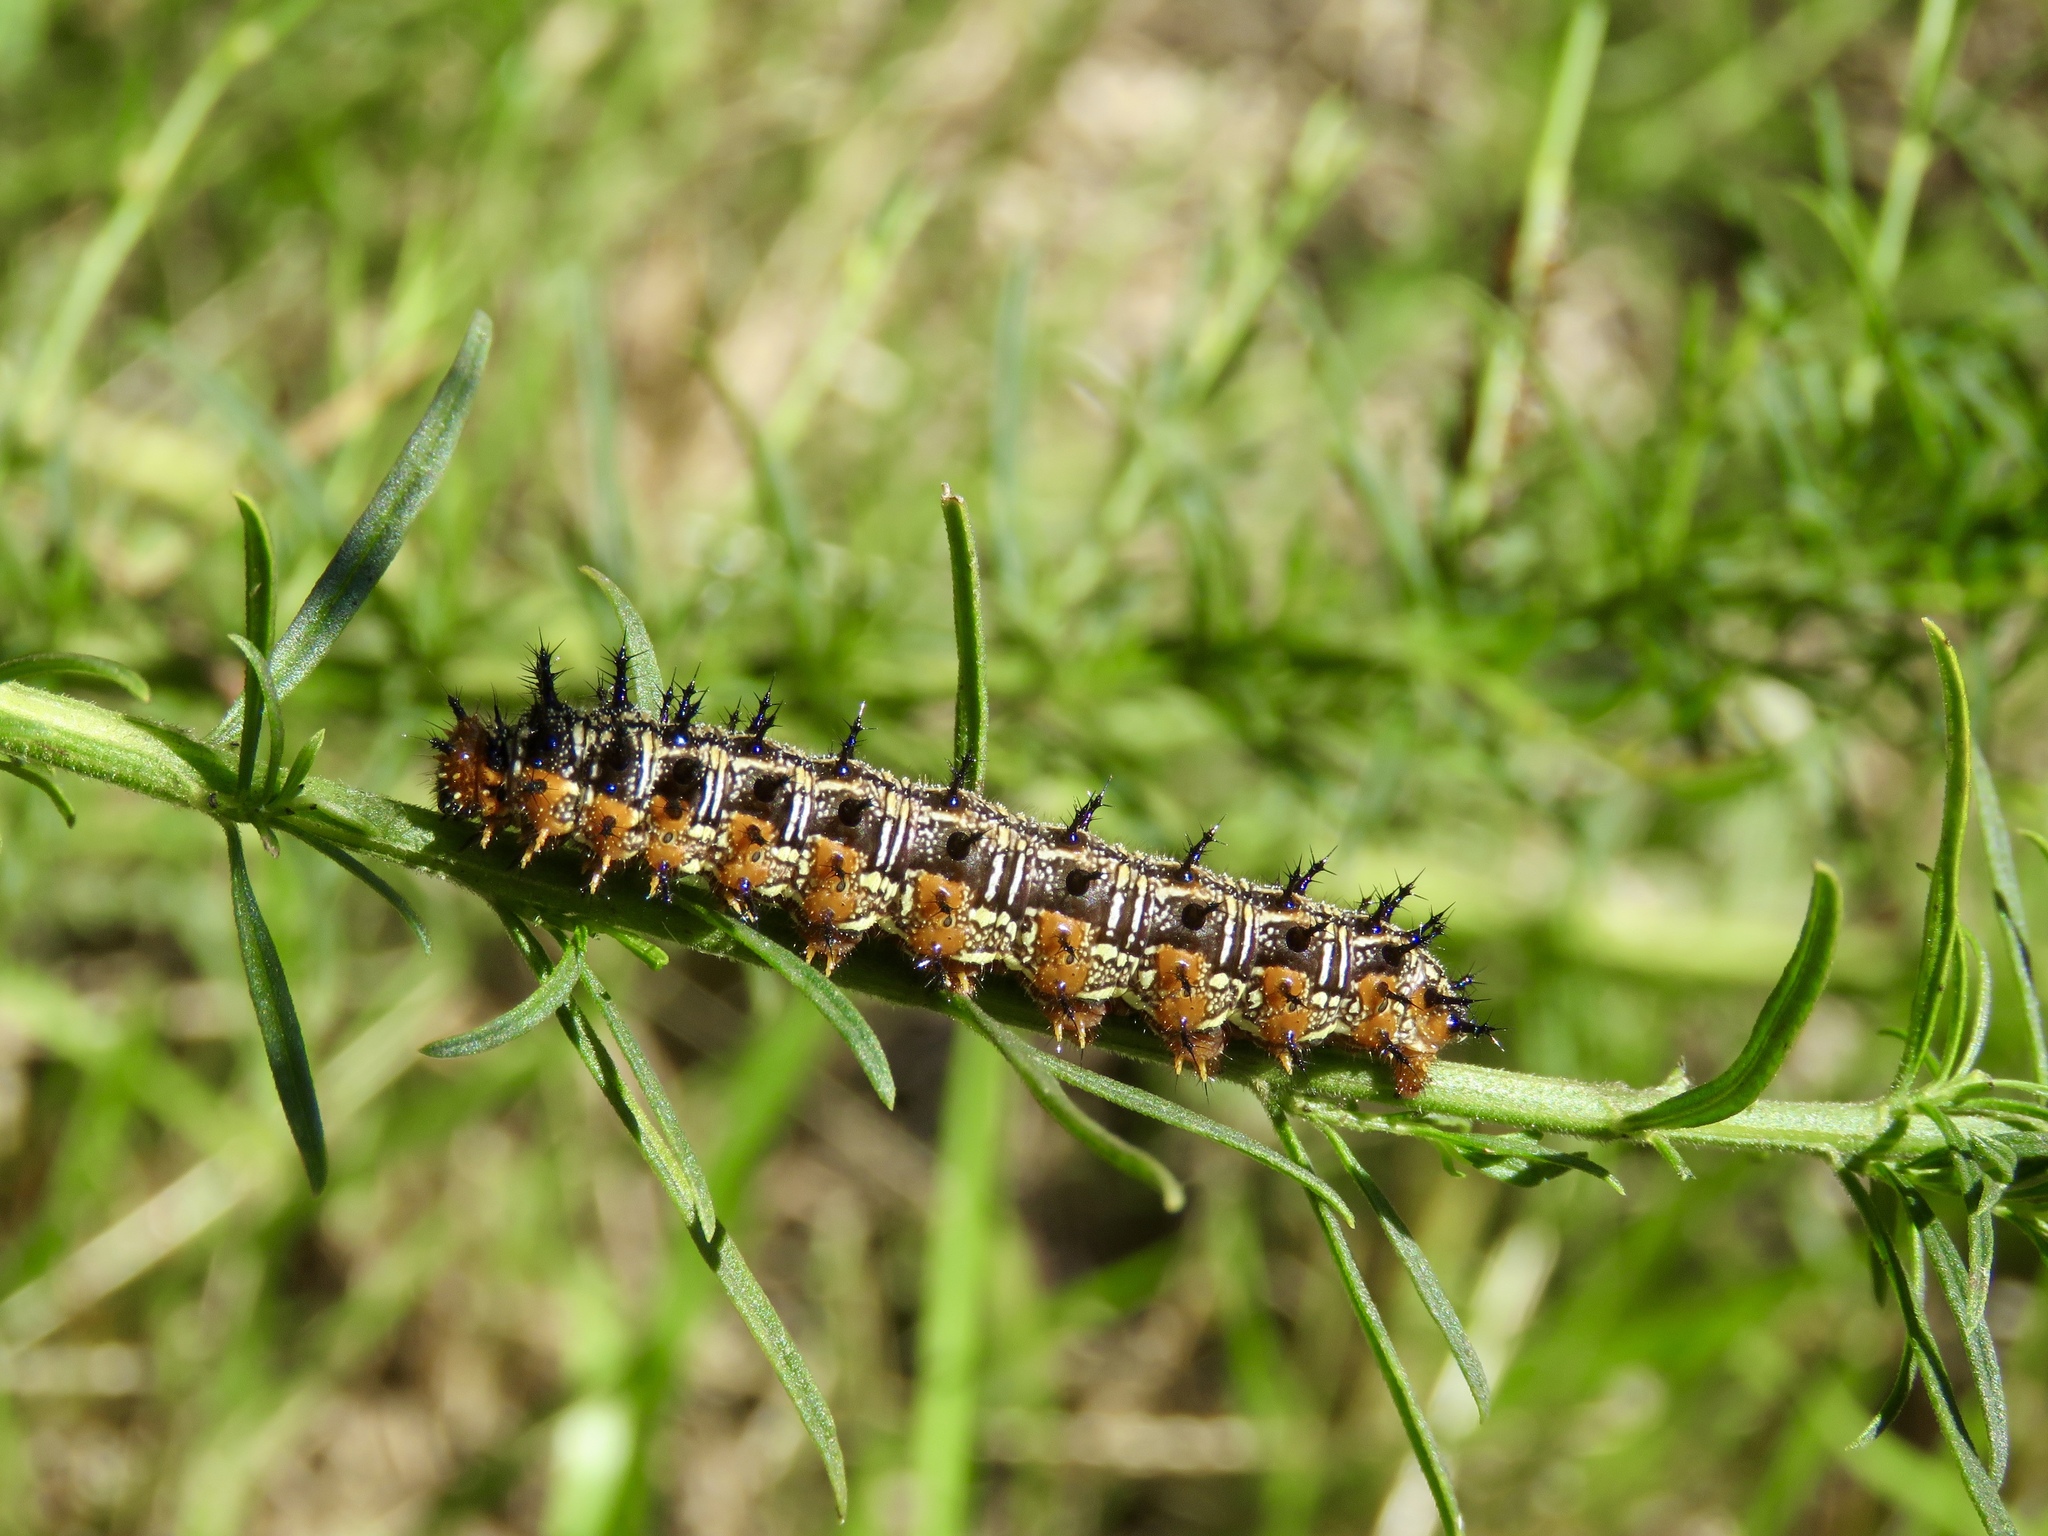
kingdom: Animalia
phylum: Arthropoda
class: Insecta
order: Lepidoptera
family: Nymphalidae
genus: Junonia
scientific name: Junonia coenia
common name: Common buckeye
